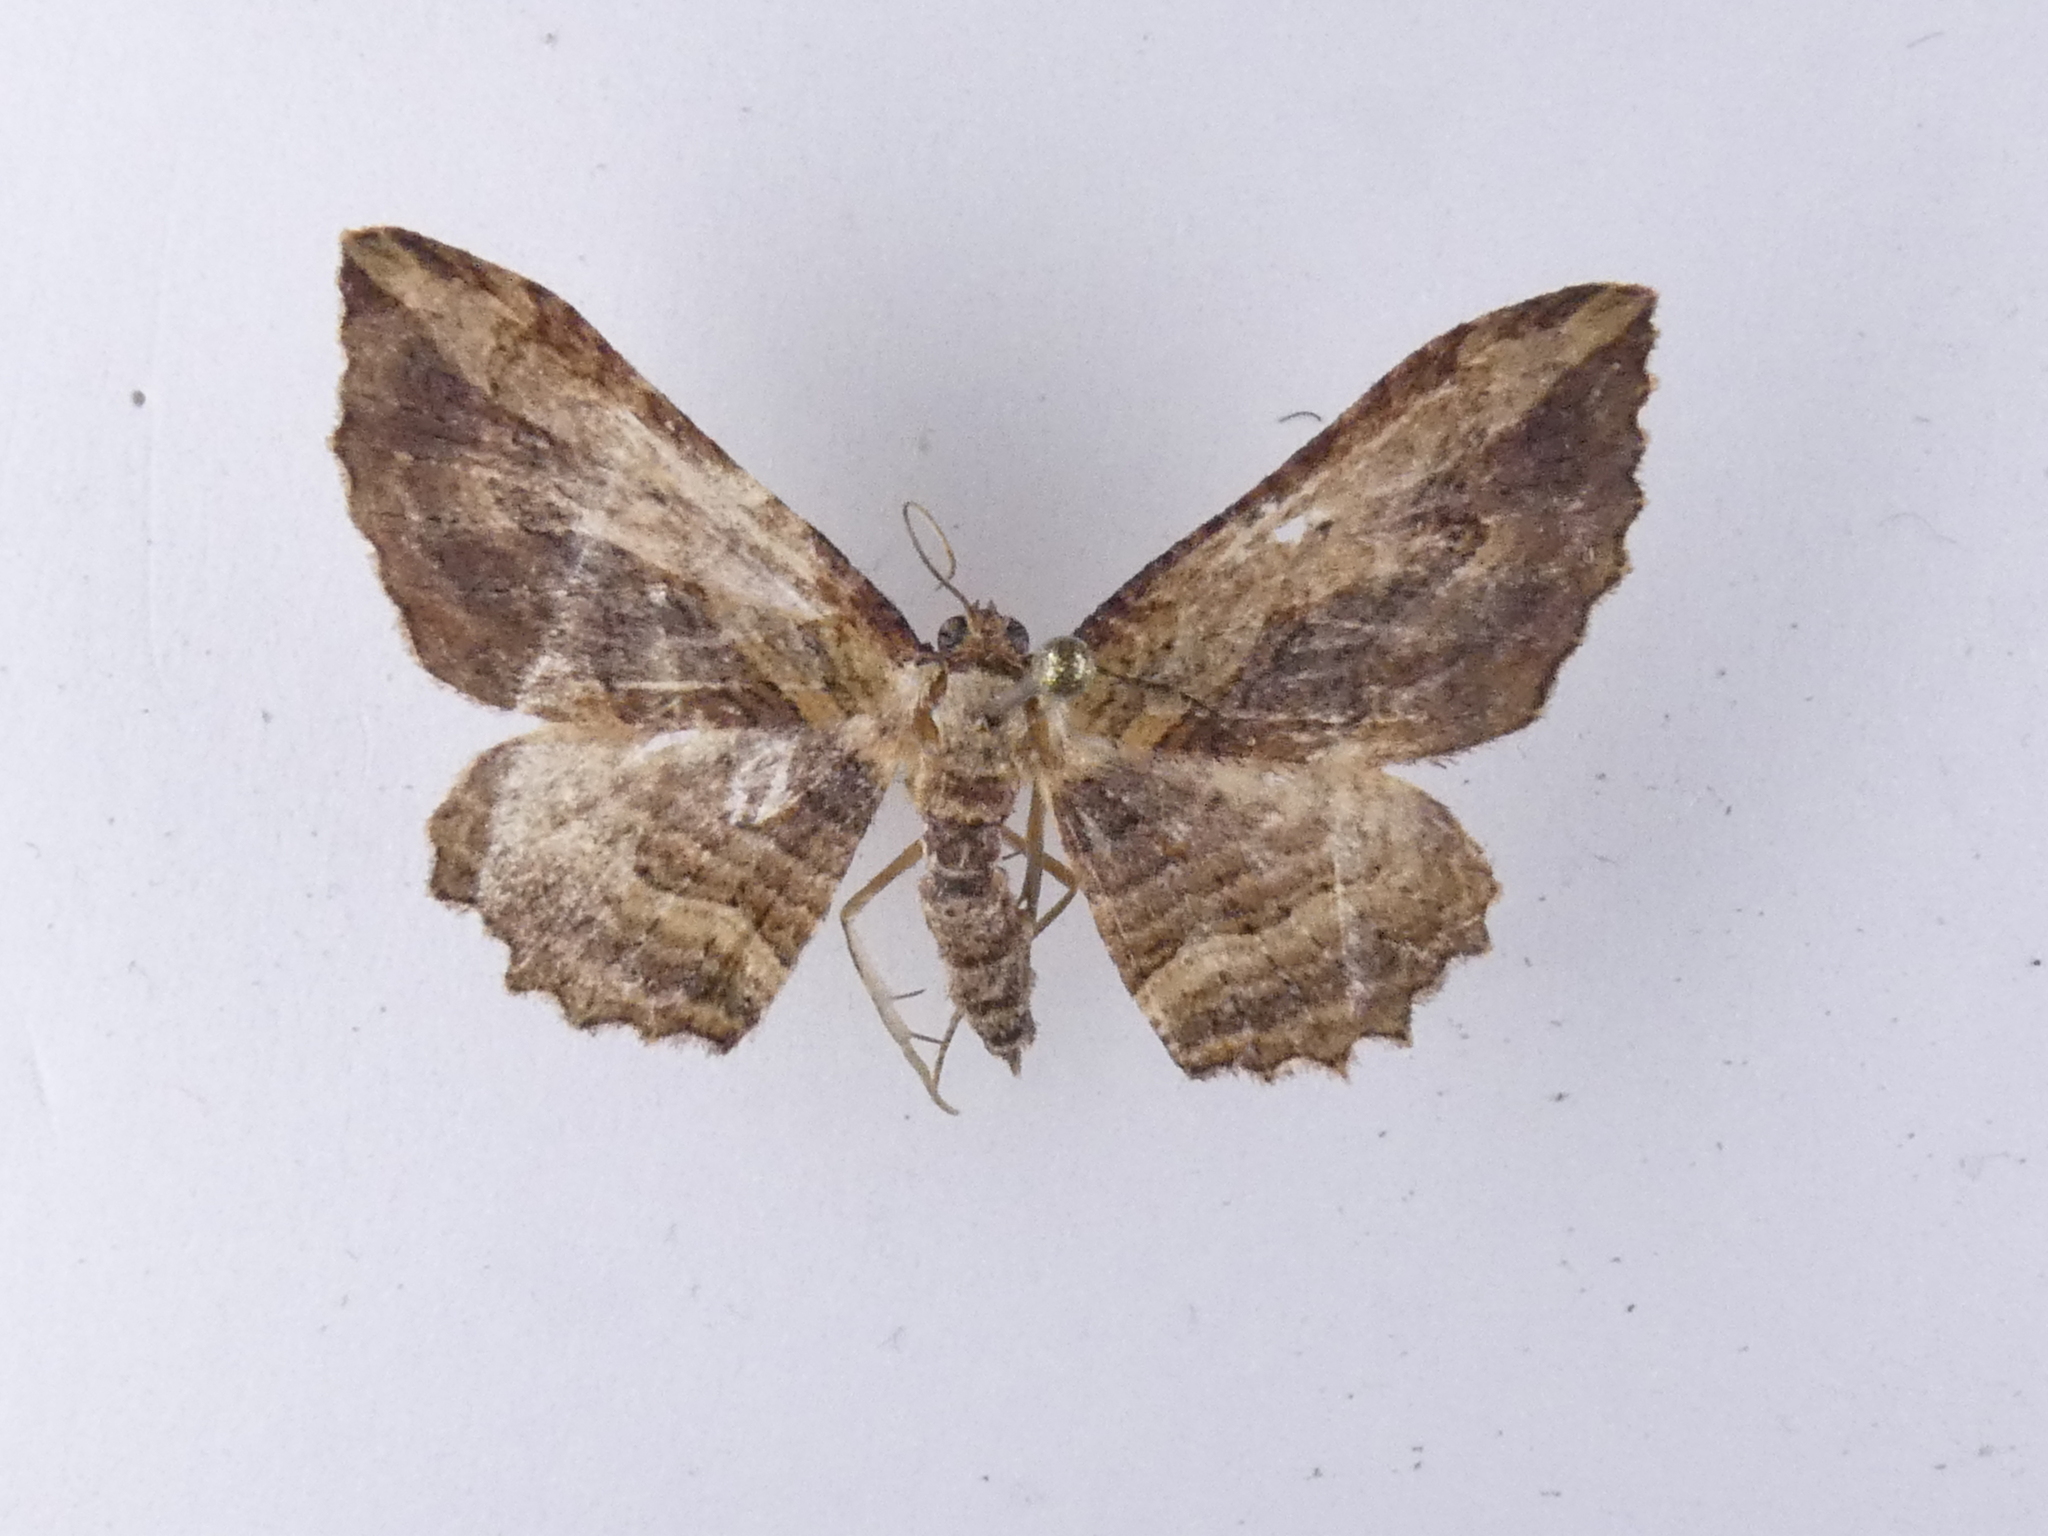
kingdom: Animalia
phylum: Arthropoda
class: Insecta
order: Lepidoptera
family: Geometridae
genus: Austrocidaria
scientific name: Austrocidaria bipartita
